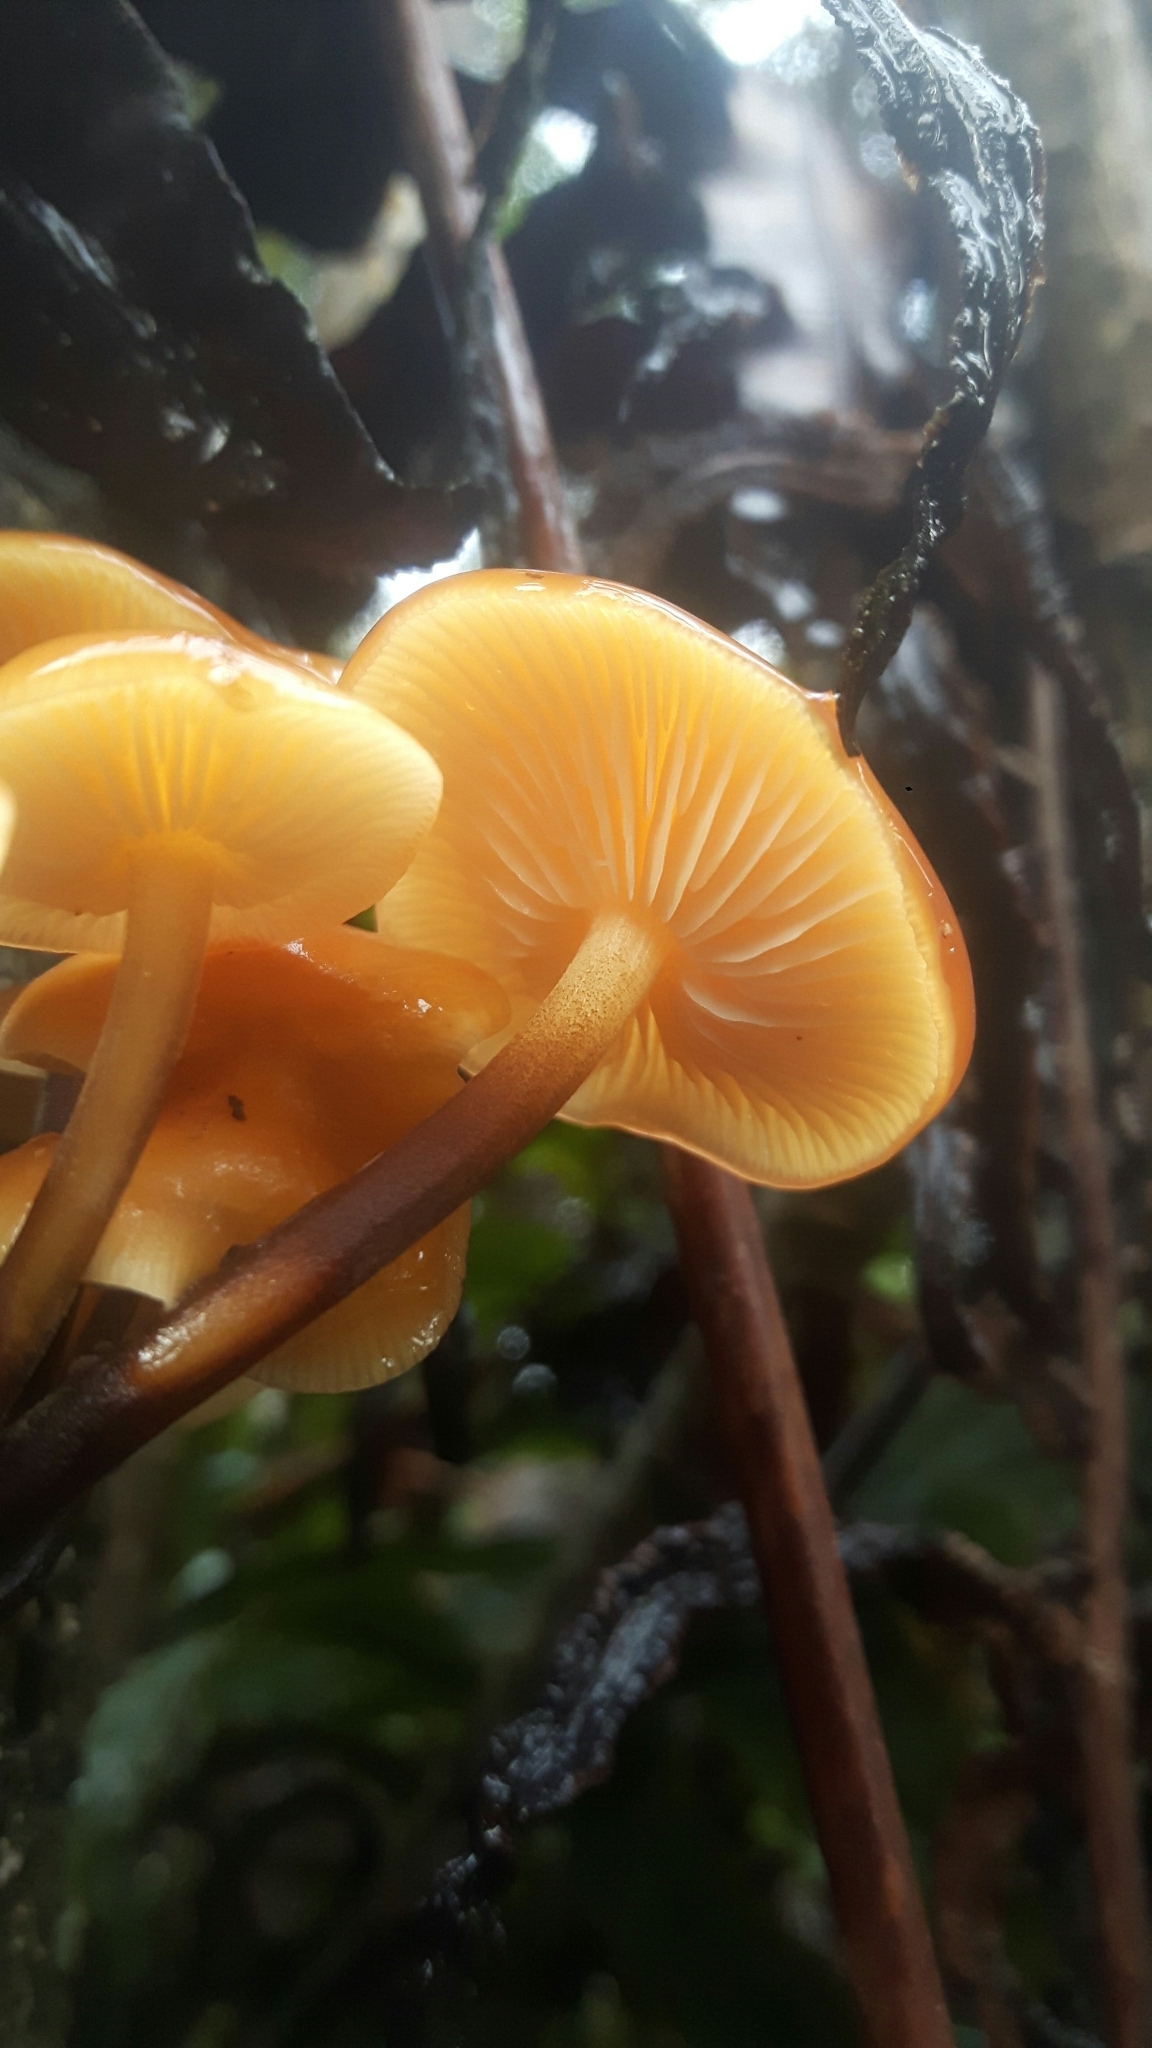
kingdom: Fungi
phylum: Basidiomycota
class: Agaricomycetes
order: Agaricales
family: Physalacriaceae
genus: Flammulina
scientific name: Flammulina velutipes
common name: Velvet shank
